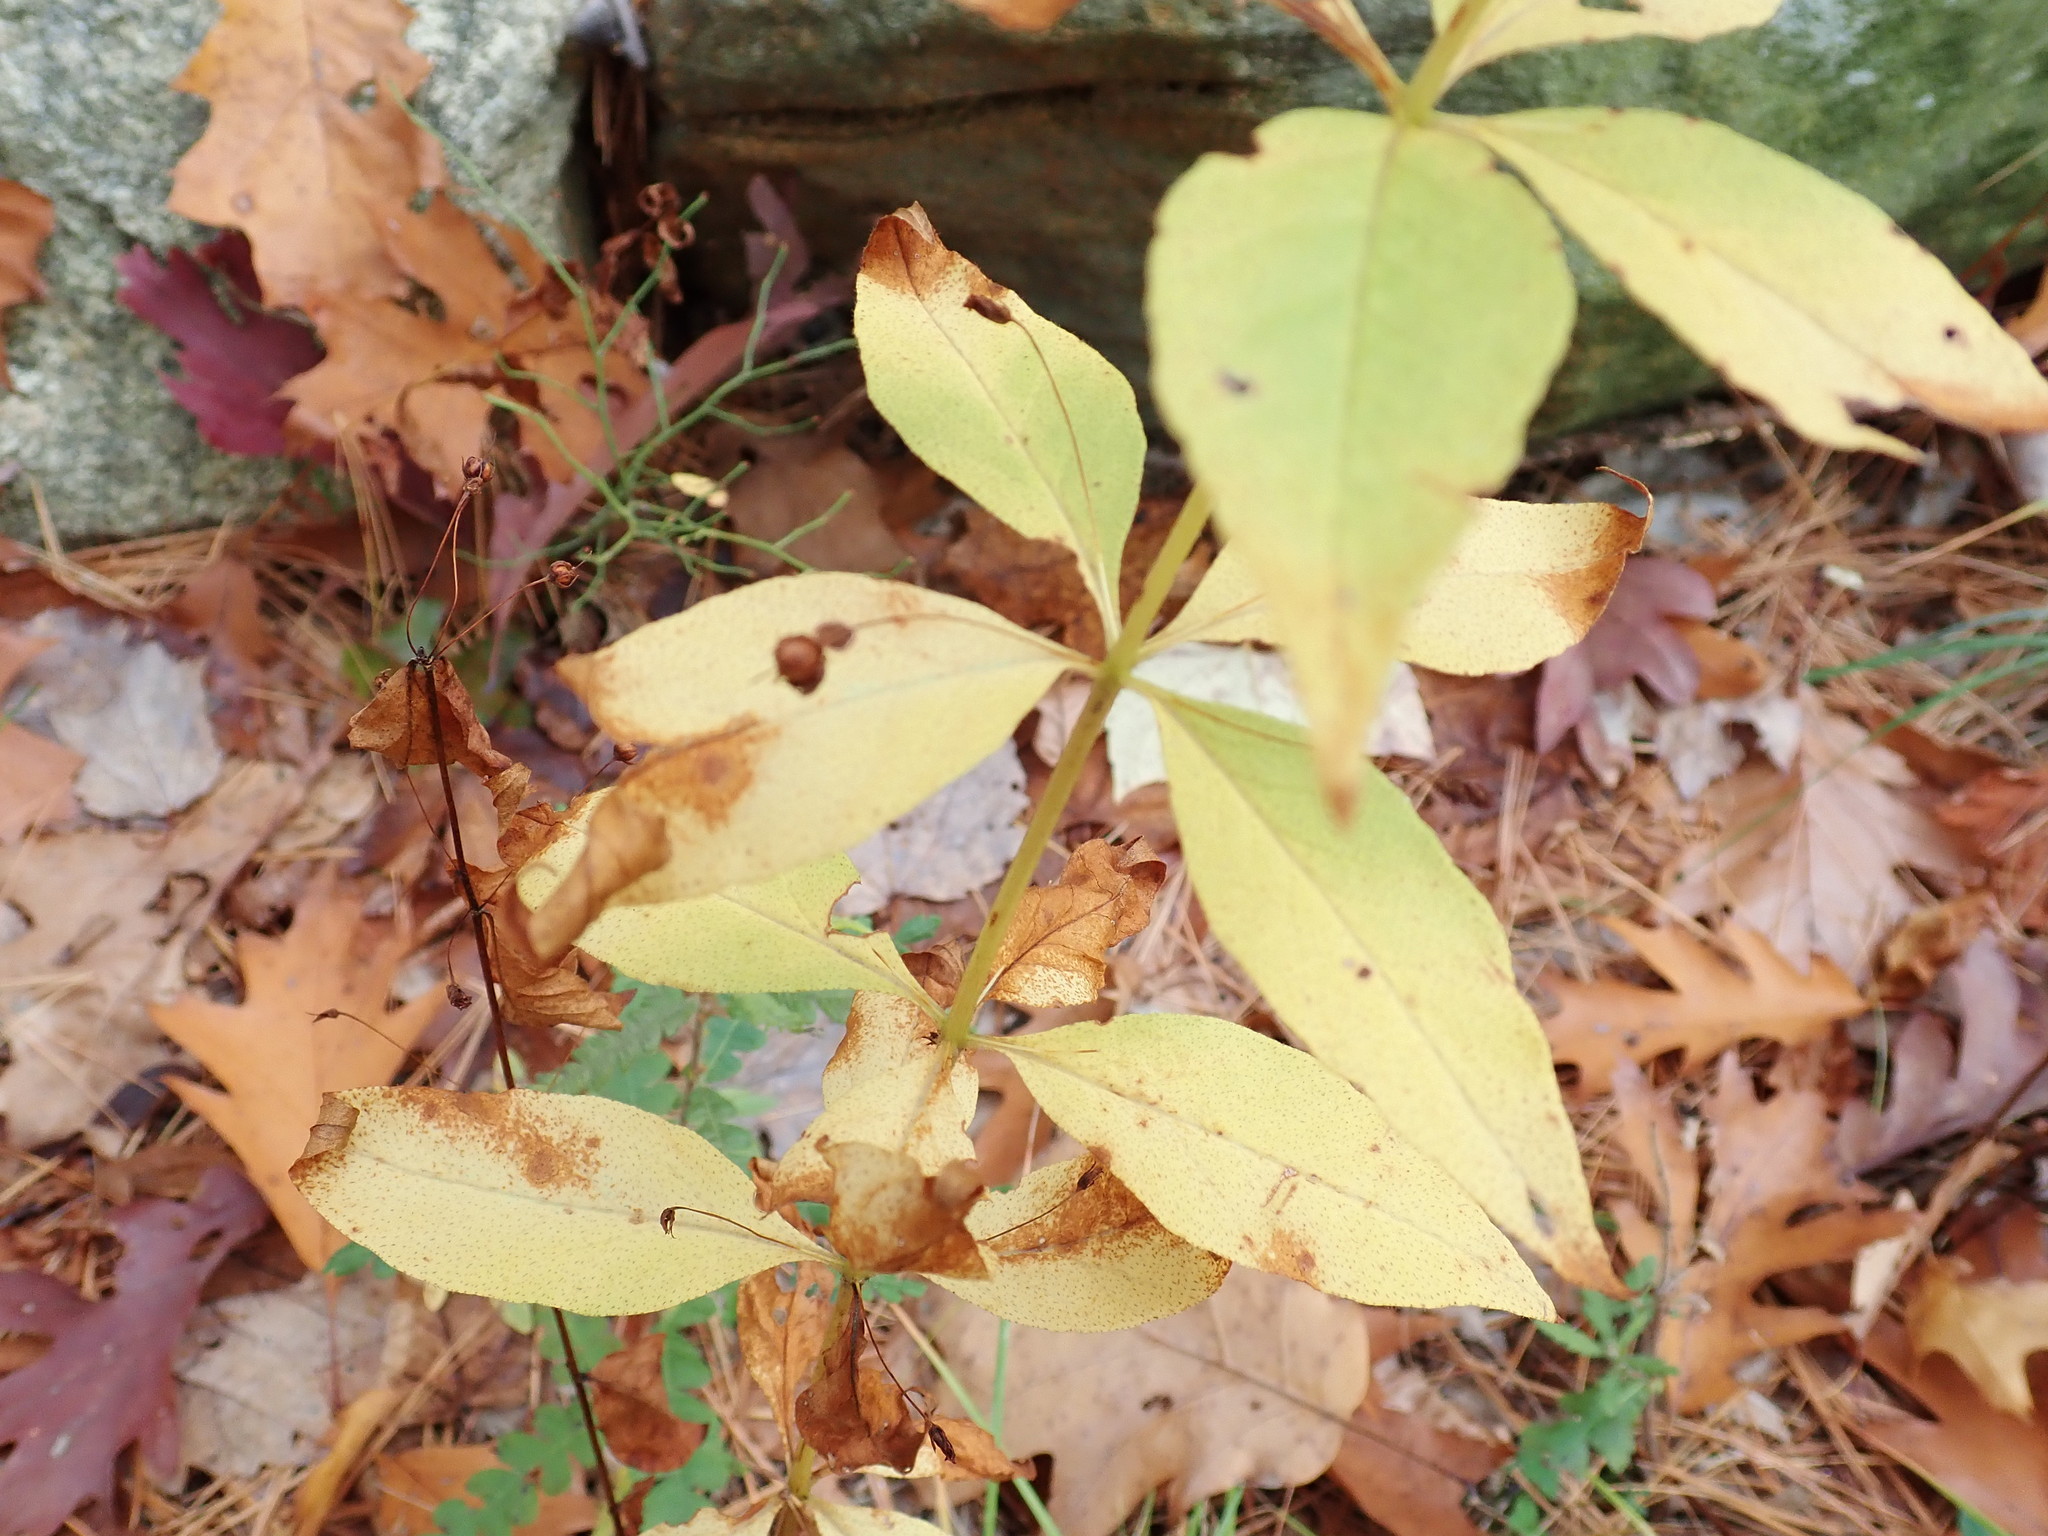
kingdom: Plantae
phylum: Tracheophyta
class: Magnoliopsida
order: Ericales
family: Primulaceae
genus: Lysimachia
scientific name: Lysimachia quadrifolia
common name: Whorled loosestrife
